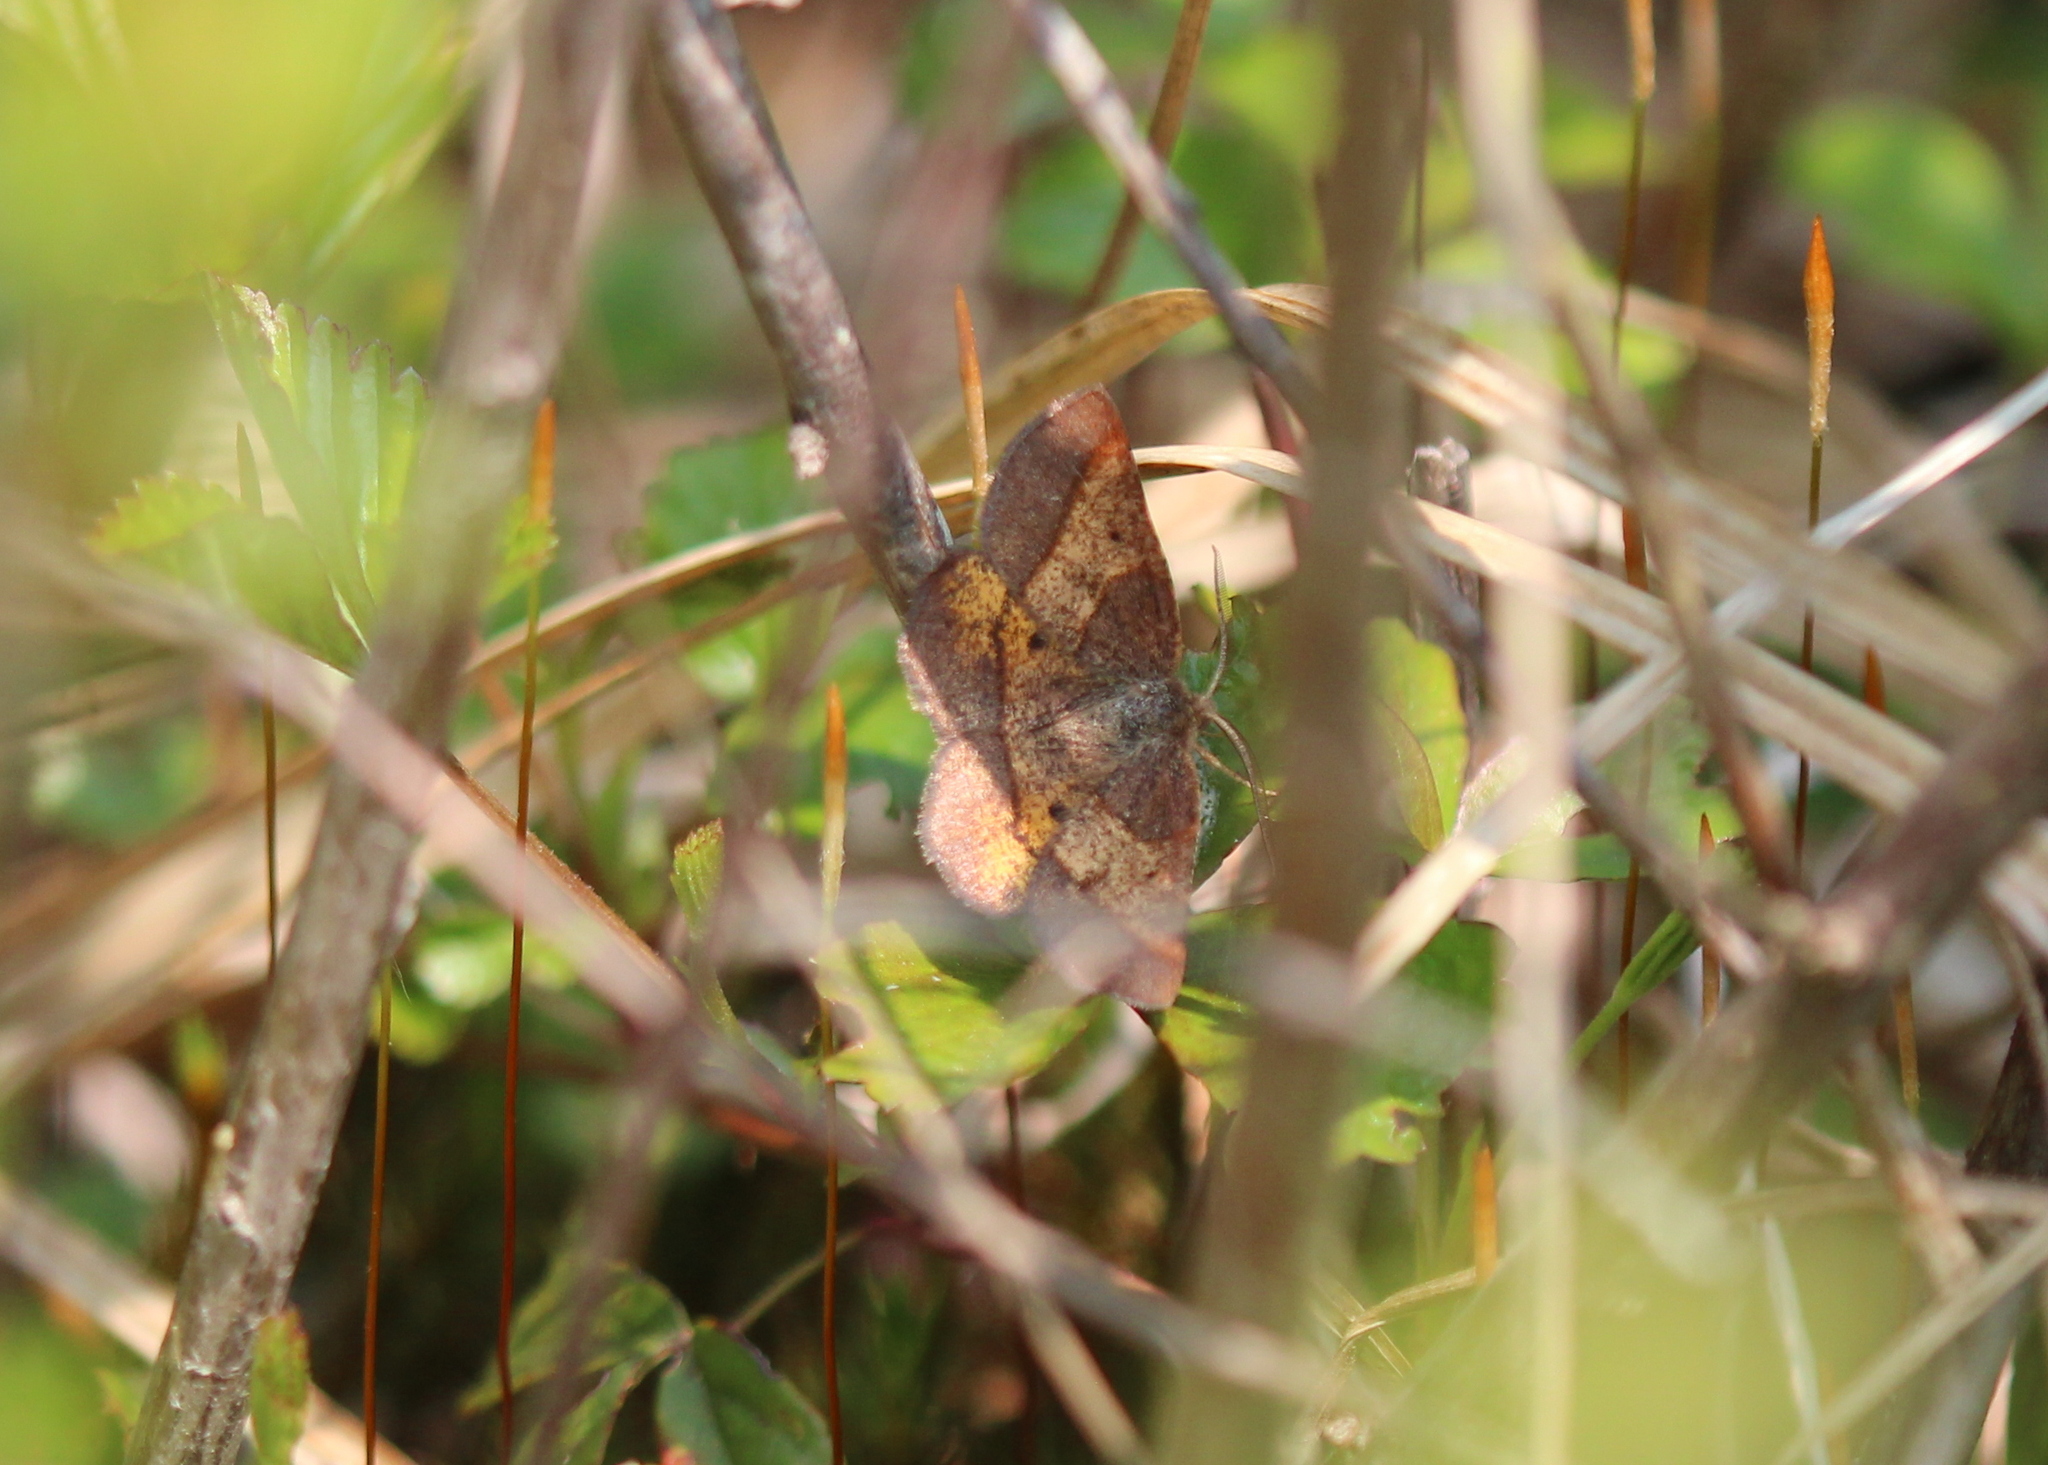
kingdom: Animalia
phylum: Arthropoda
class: Insecta
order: Lepidoptera
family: Geometridae
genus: Metarranthis
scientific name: Metarranthis obfirmaria
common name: Yellow-washed metarranthis
